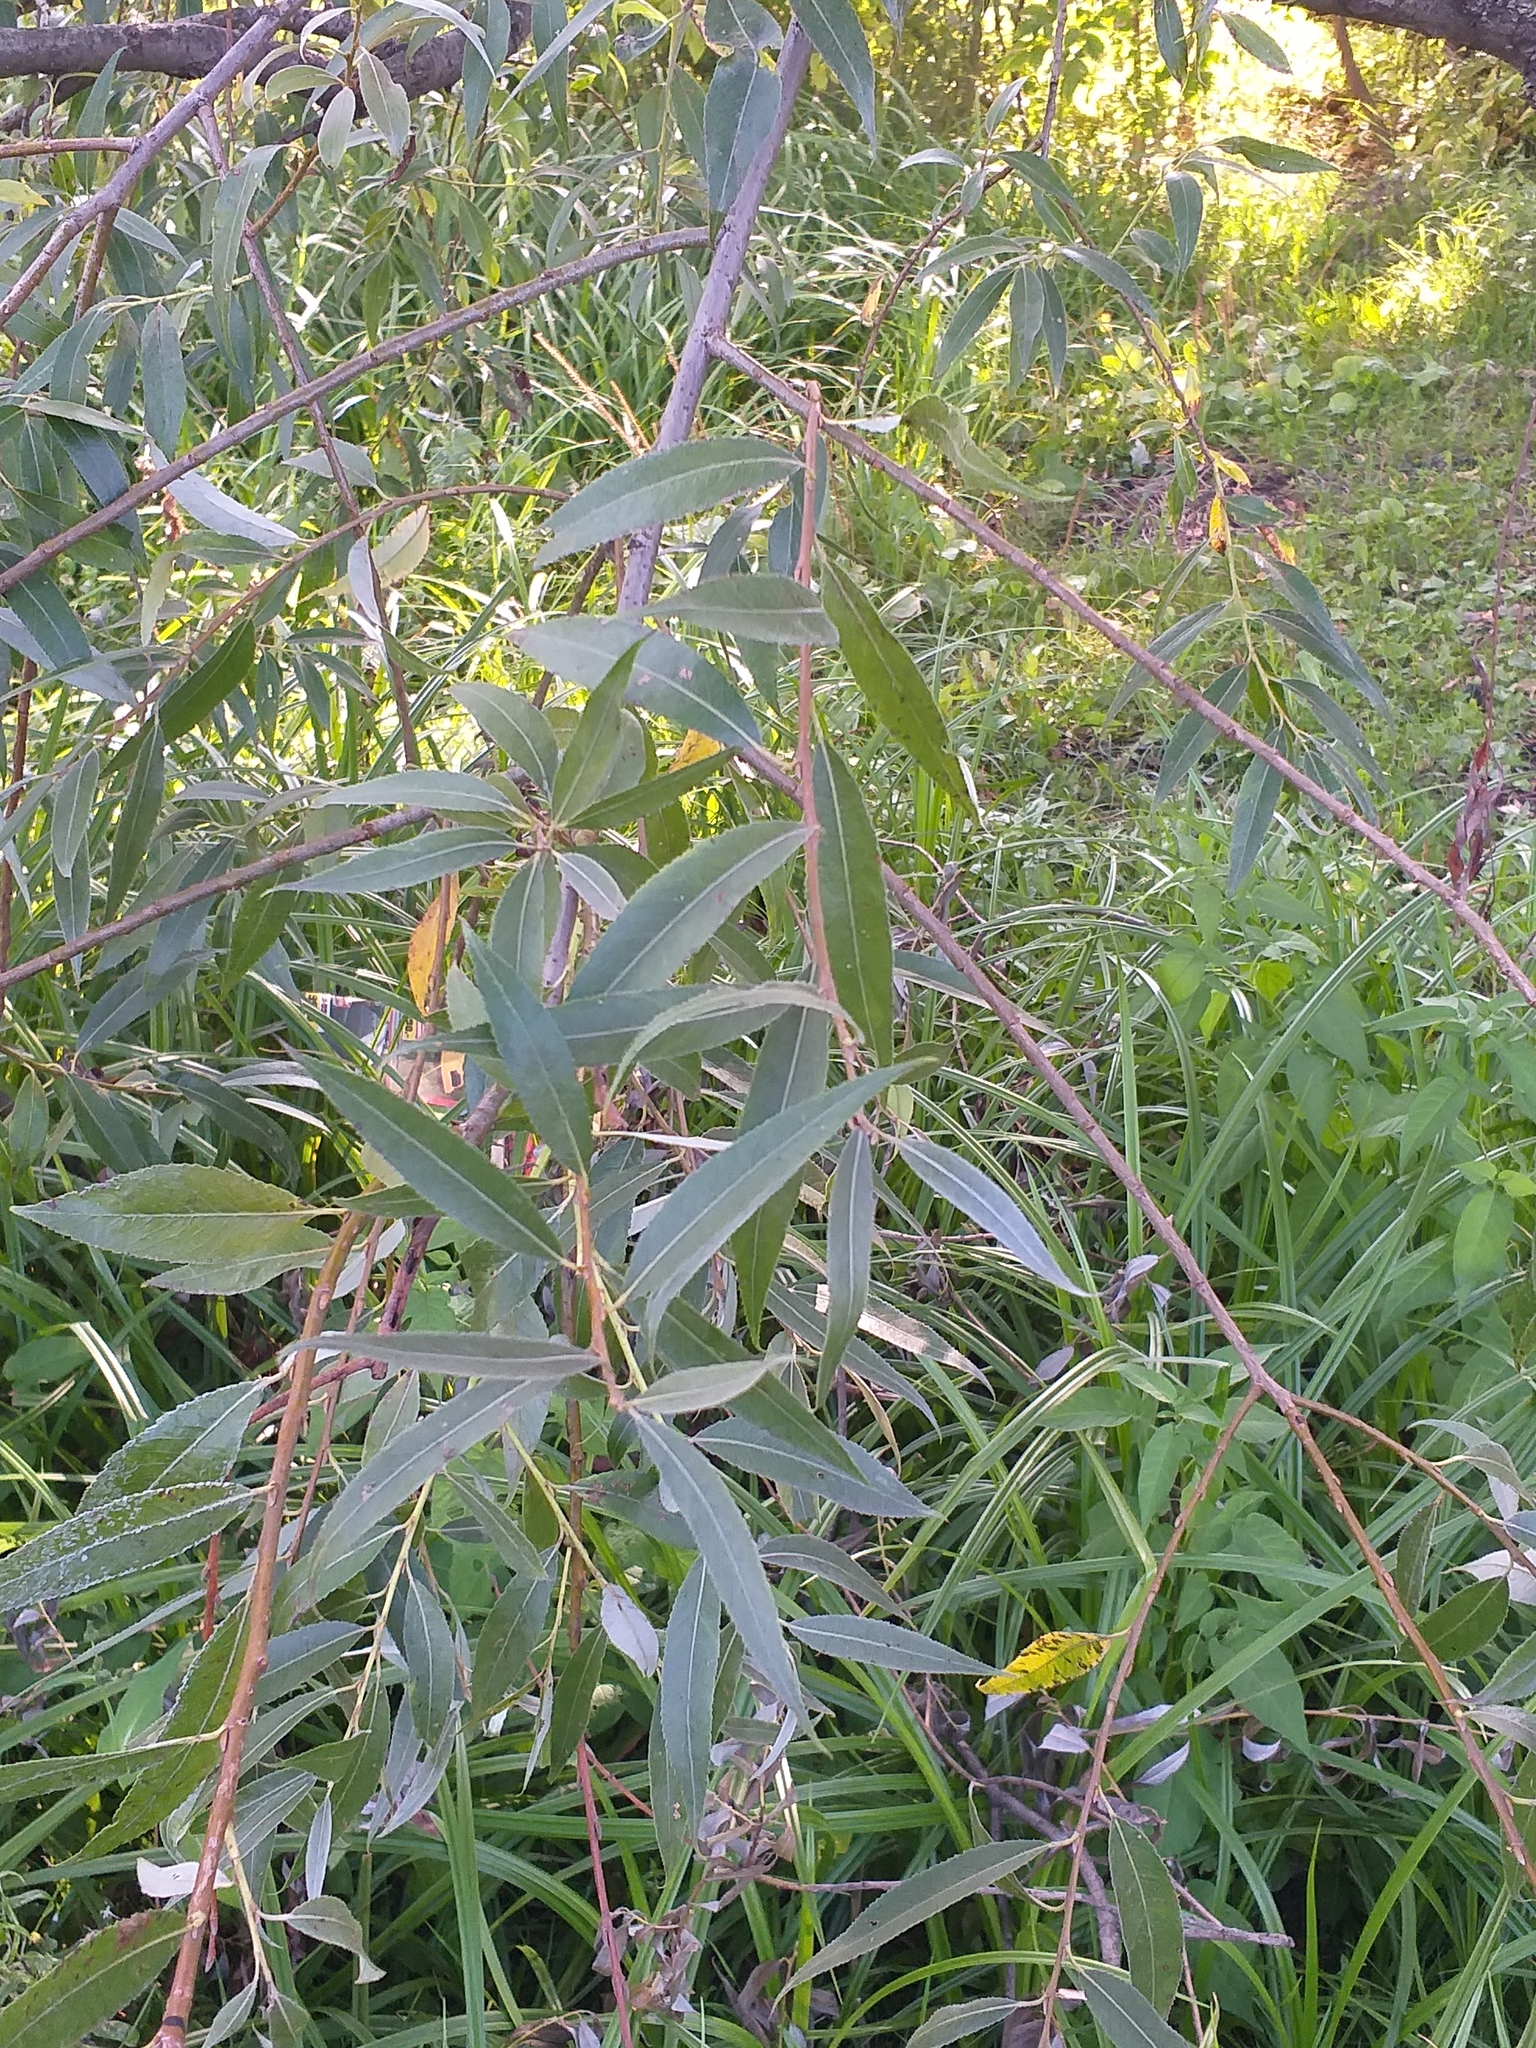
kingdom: Plantae
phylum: Tracheophyta
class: Magnoliopsida
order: Malpighiales
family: Salicaceae
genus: Salix
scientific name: Salix alba
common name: White willow
